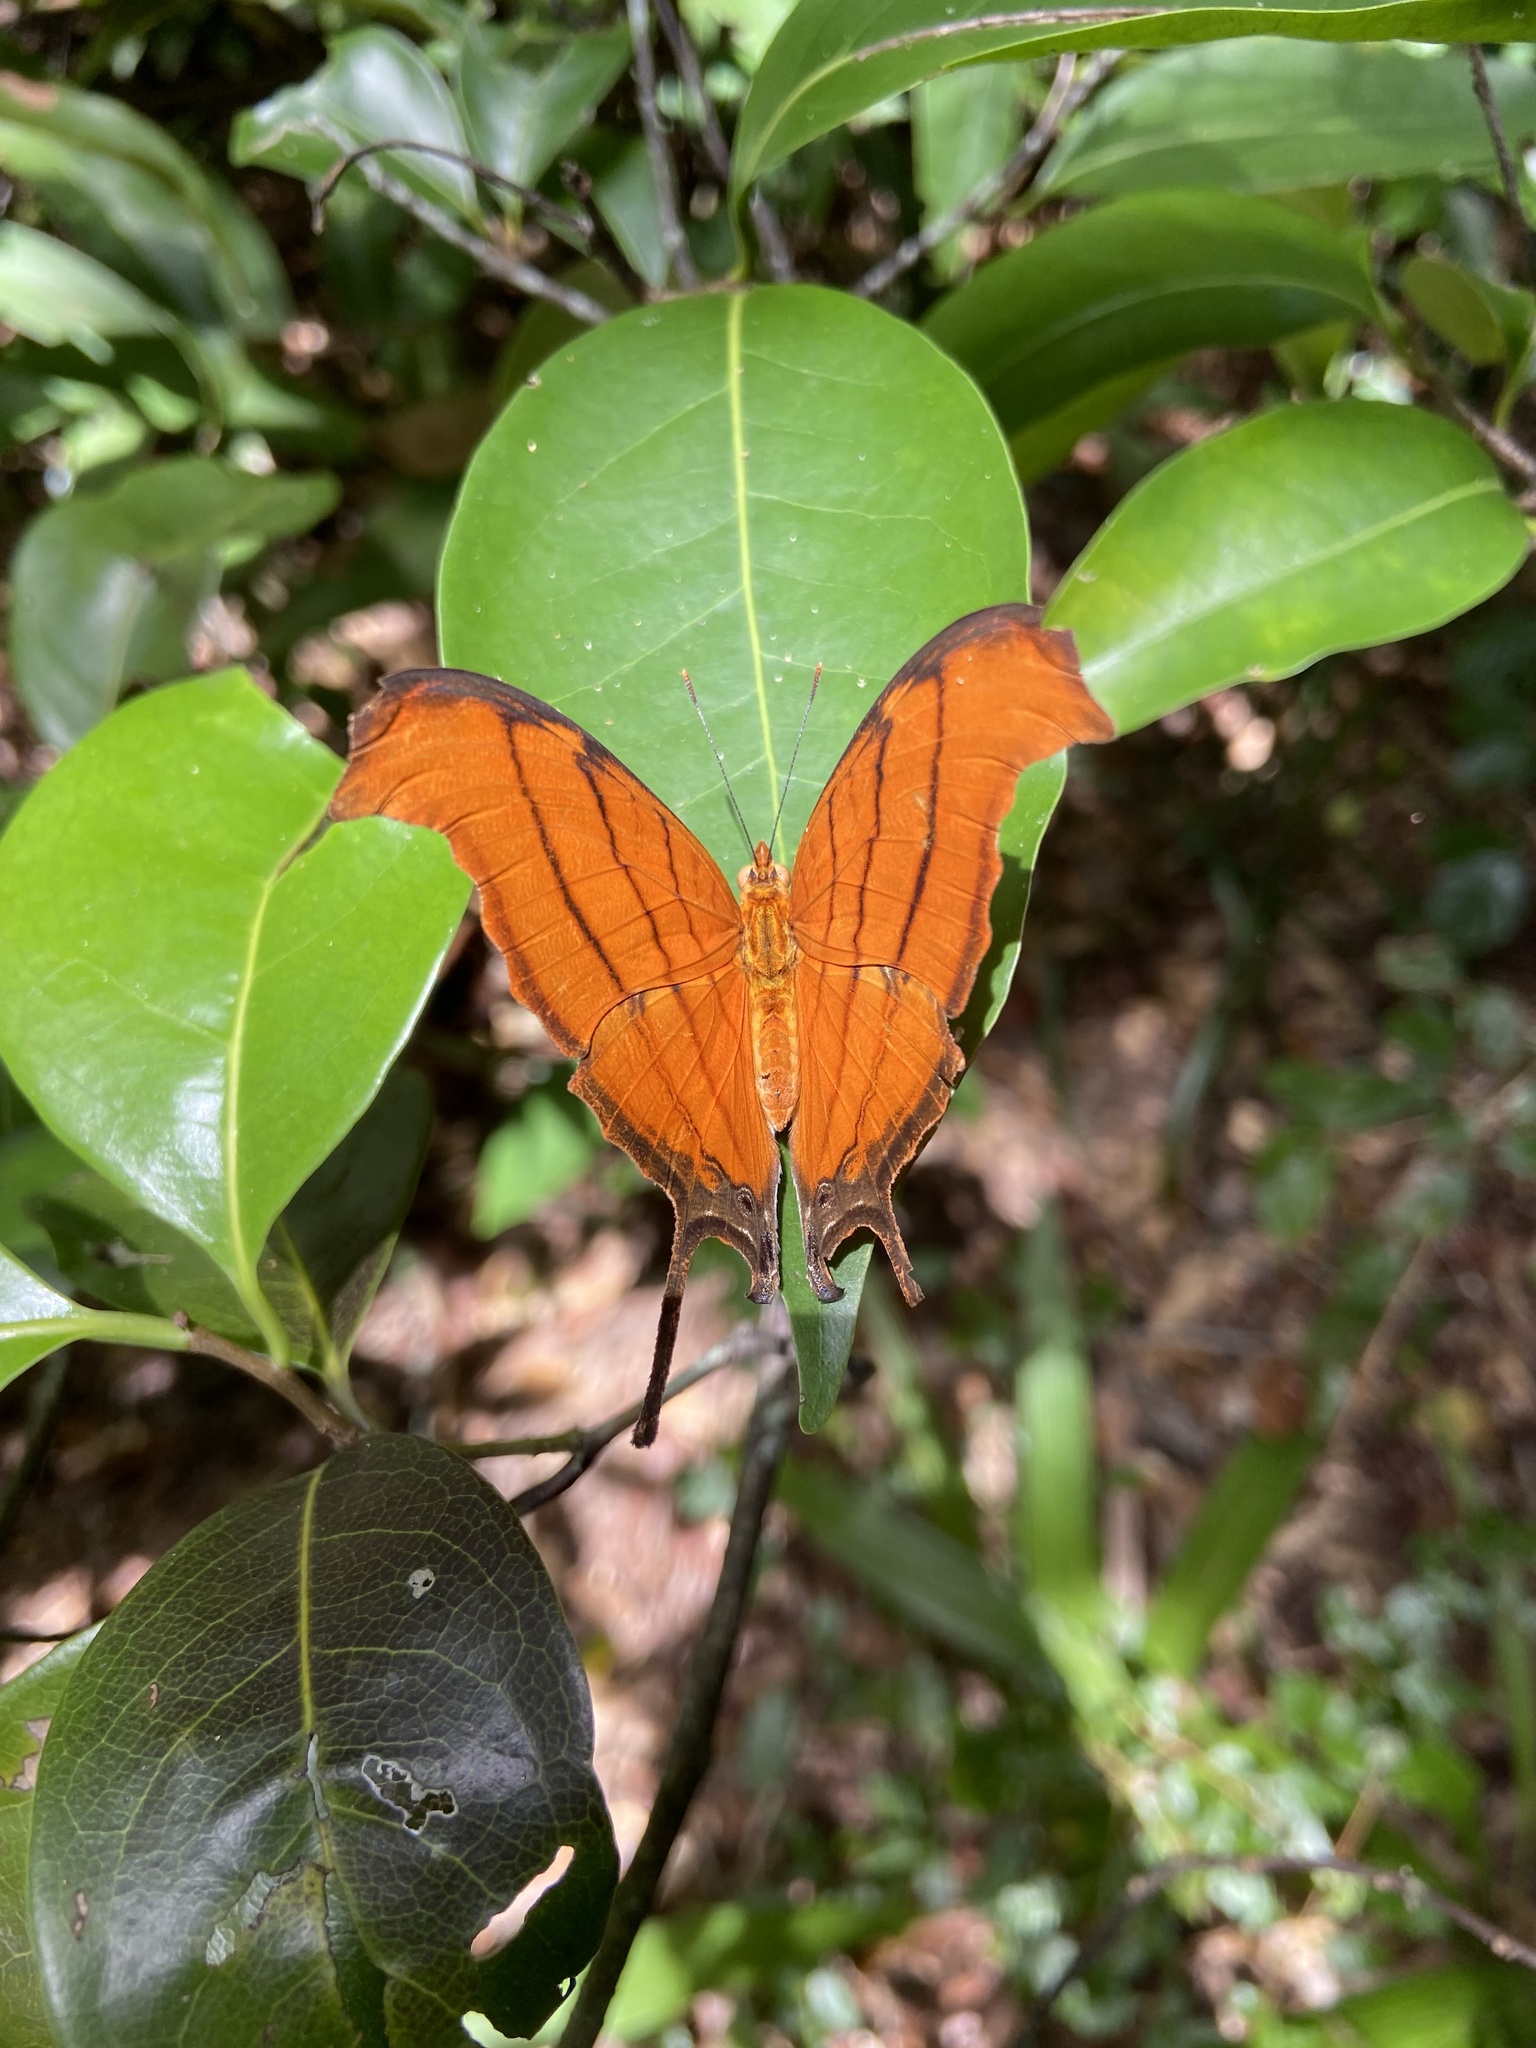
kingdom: Animalia
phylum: Arthropoda
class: Insecta
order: Lepidoptera
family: Nymphalidae
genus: Marpesia
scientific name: Marpesia petreus
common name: Red dagger wing
